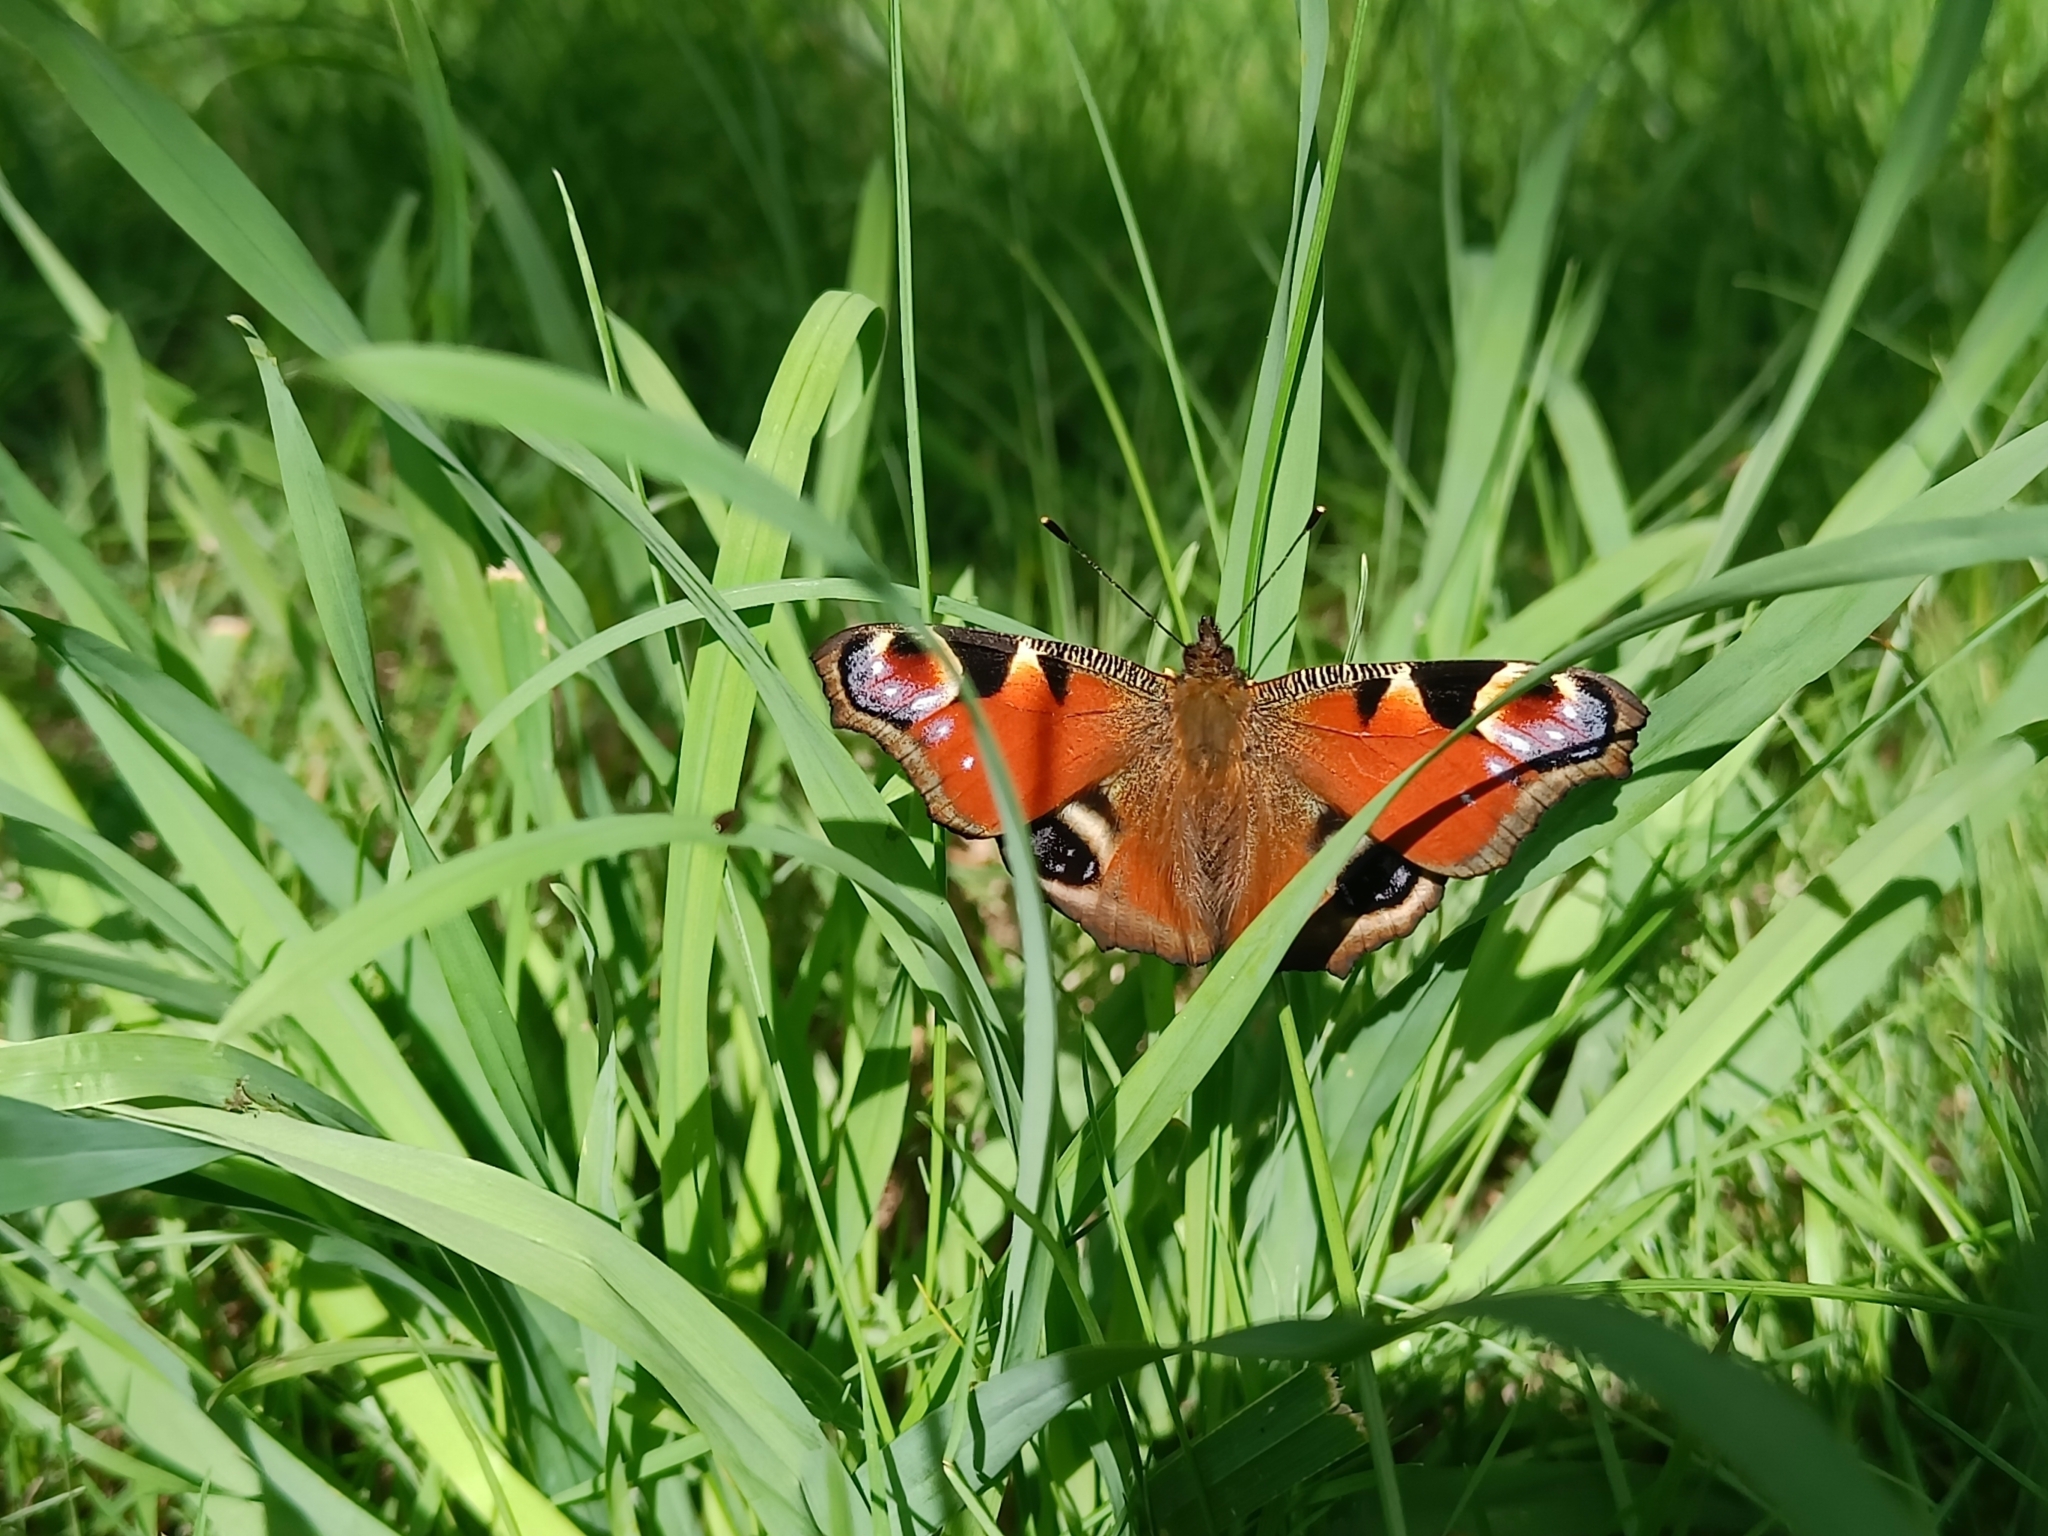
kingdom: Animalia
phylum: Arthropoda
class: Insecta
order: Lepidoptera
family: Nymphalidae
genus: Aglais
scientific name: Aglais io
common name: Peacock
